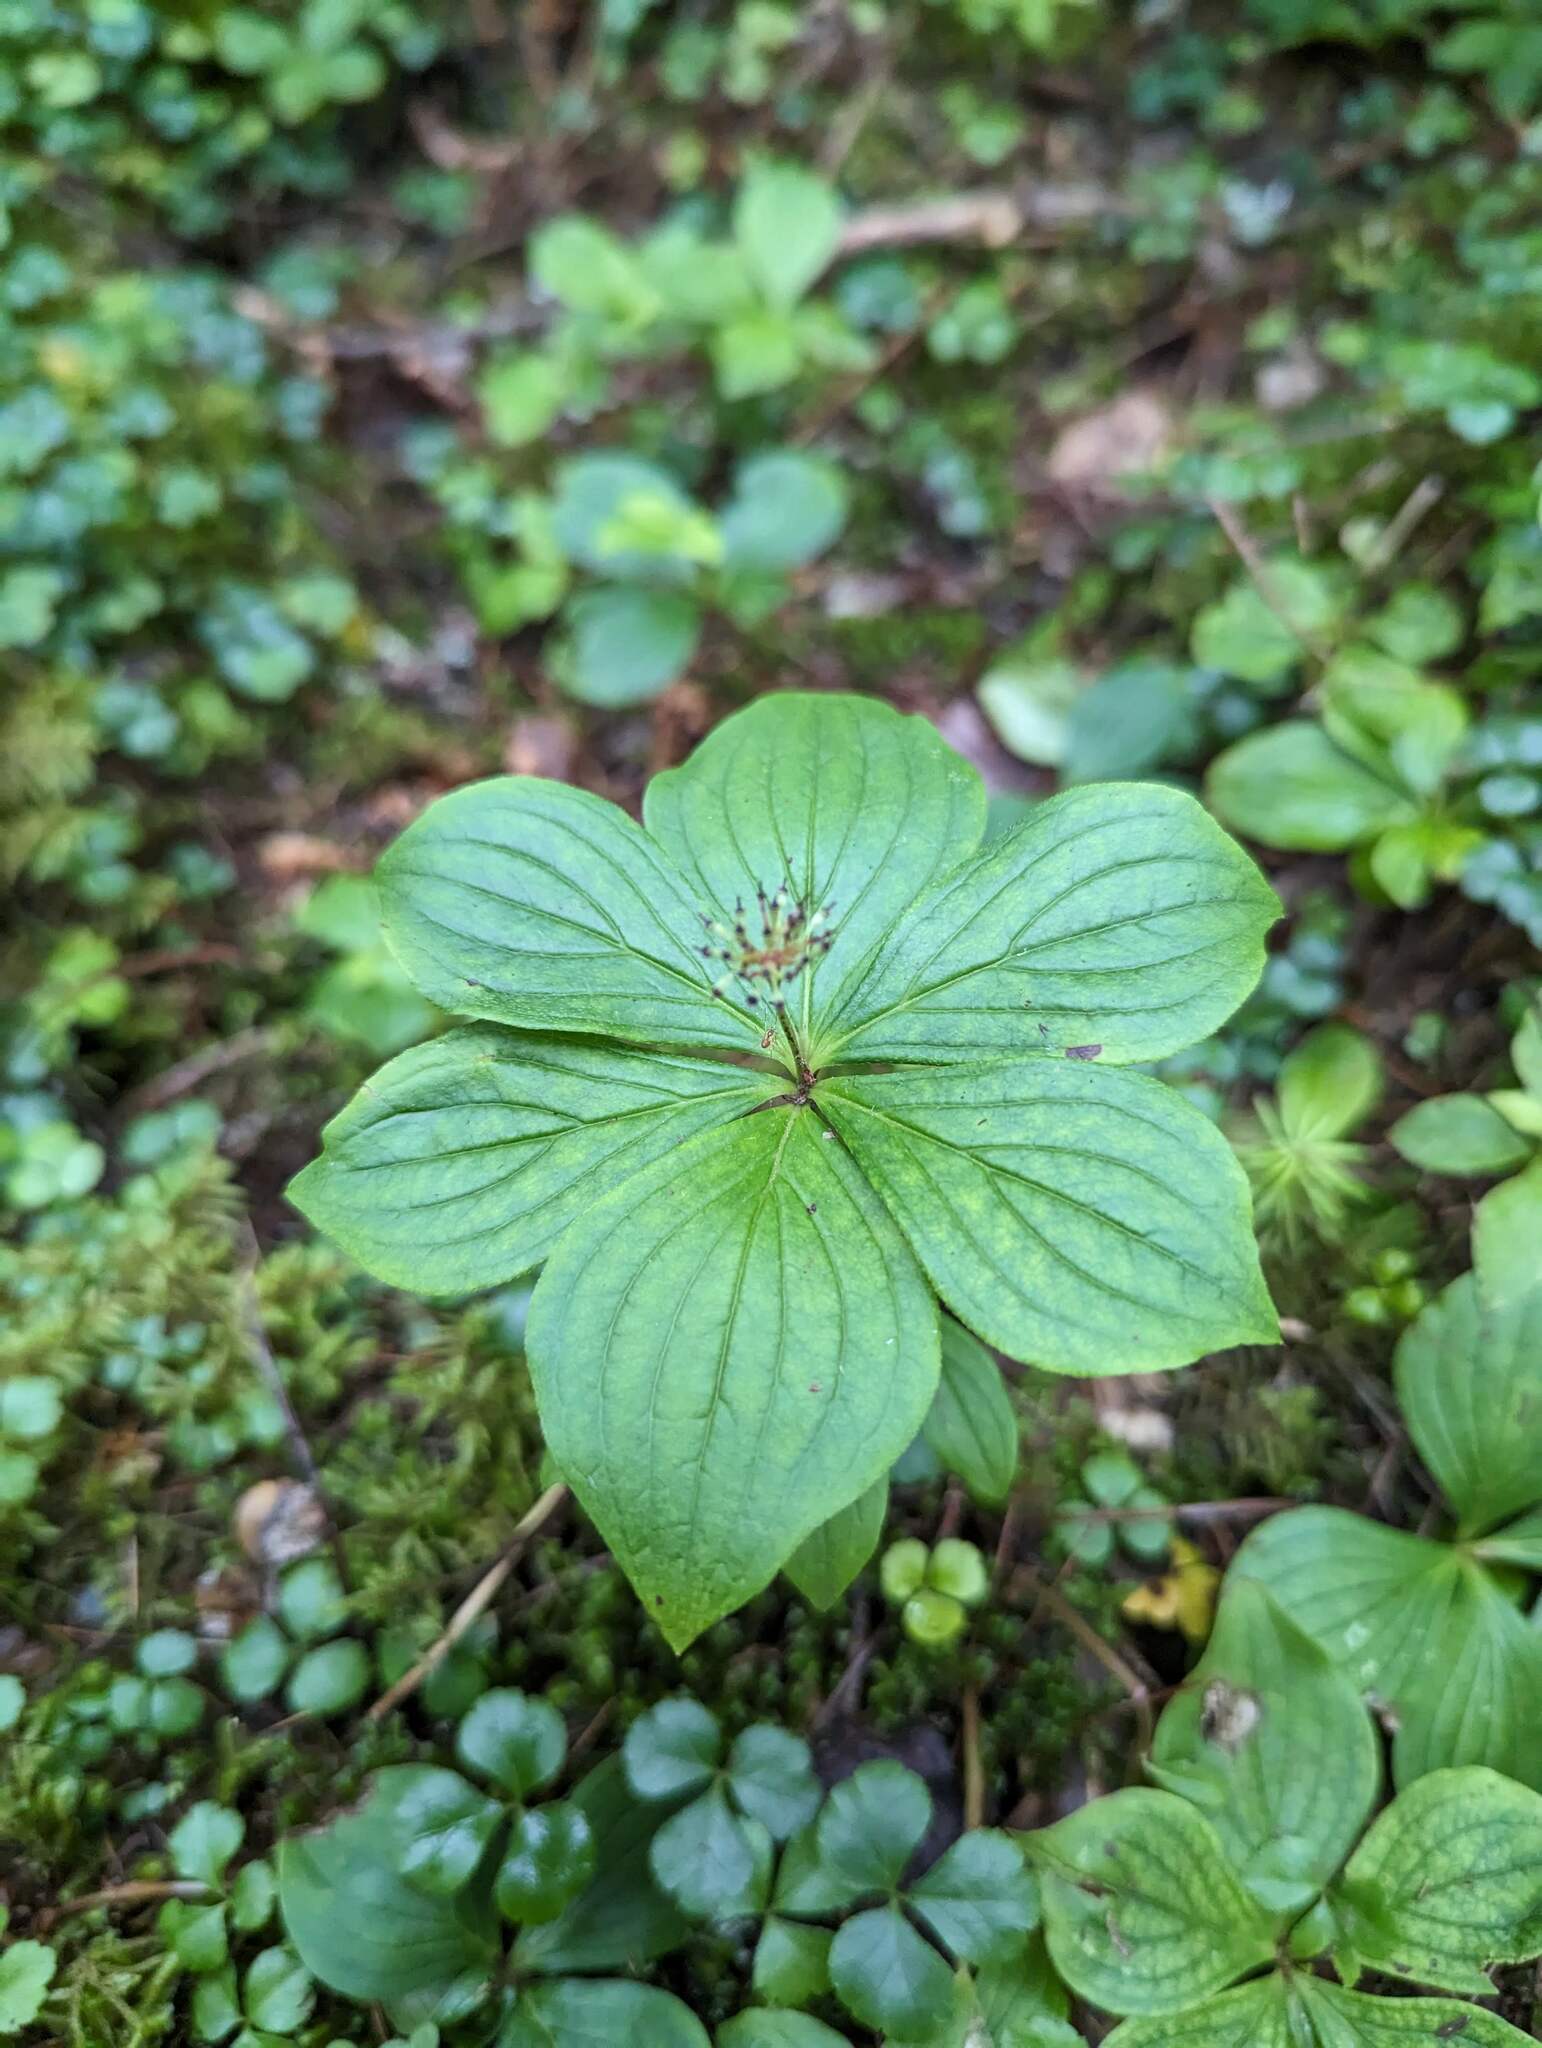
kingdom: Plantae
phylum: Tracheophyta
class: Magnoliopsida
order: Cornales
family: Cornaceae
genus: Cornus
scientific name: Cornus canadensis
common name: Creeping dogwood
